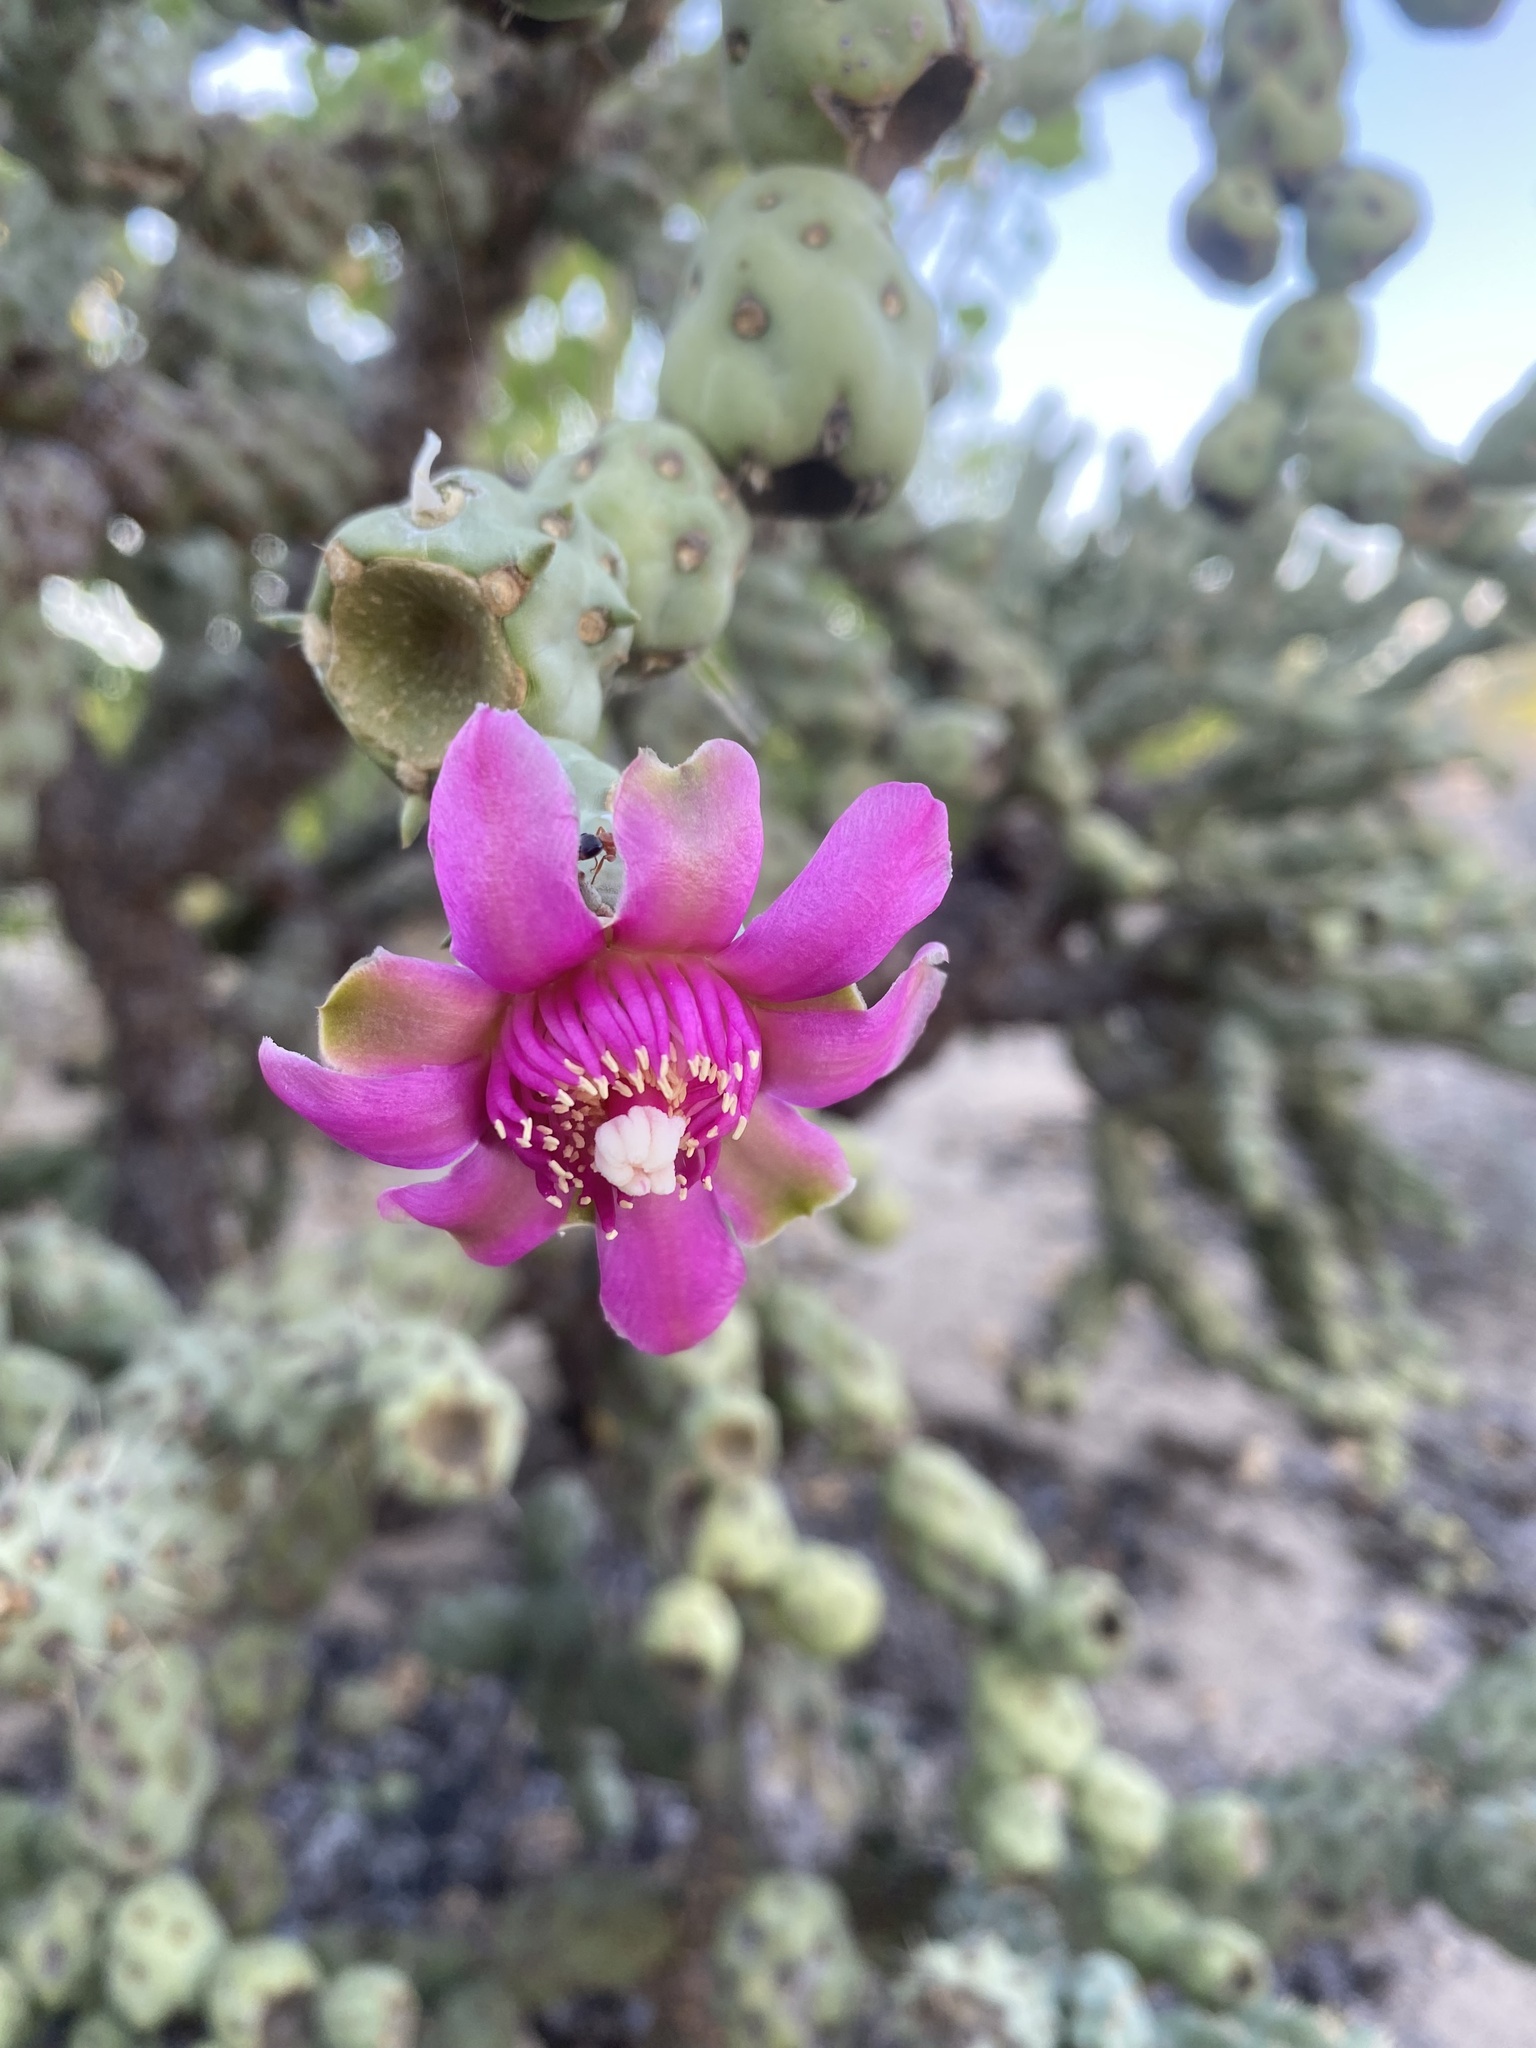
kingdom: Plantae
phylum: Tracheophyta
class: Magnoliopsida
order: Caryophyllales
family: Cactaceae
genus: Cylindropuntia
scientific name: Cylindropuntia fulgida
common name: Jumping cholla
